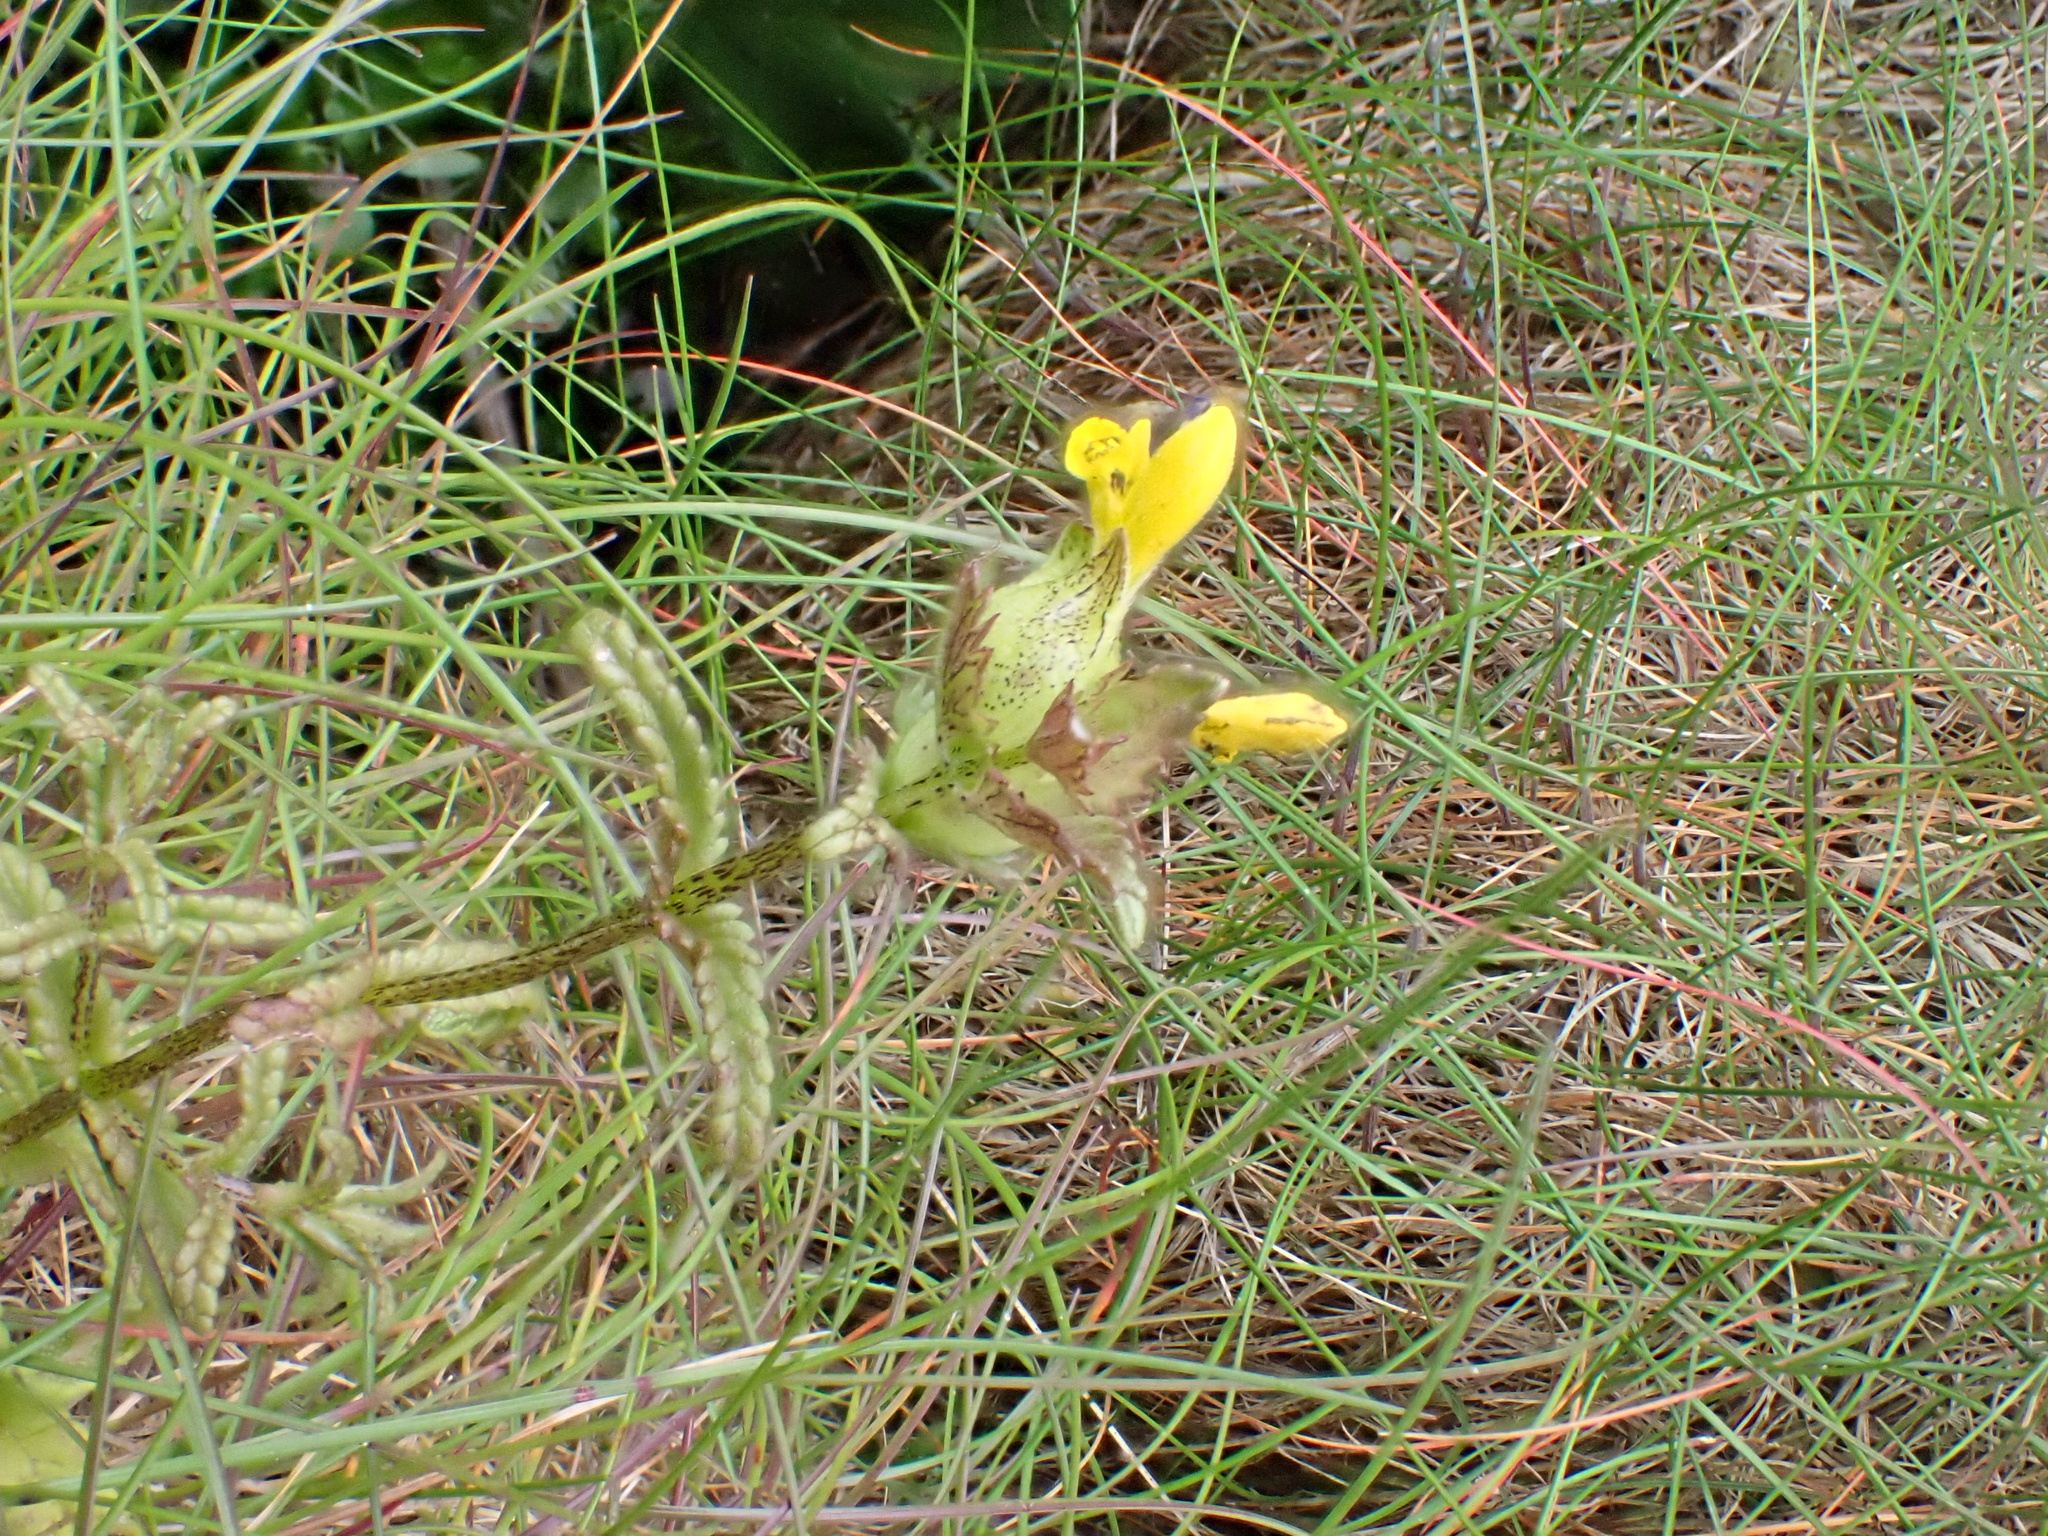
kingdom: Plantae
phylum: Tracheophyta
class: Magnoliopsida
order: Lamiales
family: Orobanchaceae
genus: Rhinanthus
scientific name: Rhinanthus minor
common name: Yellow-rattle
